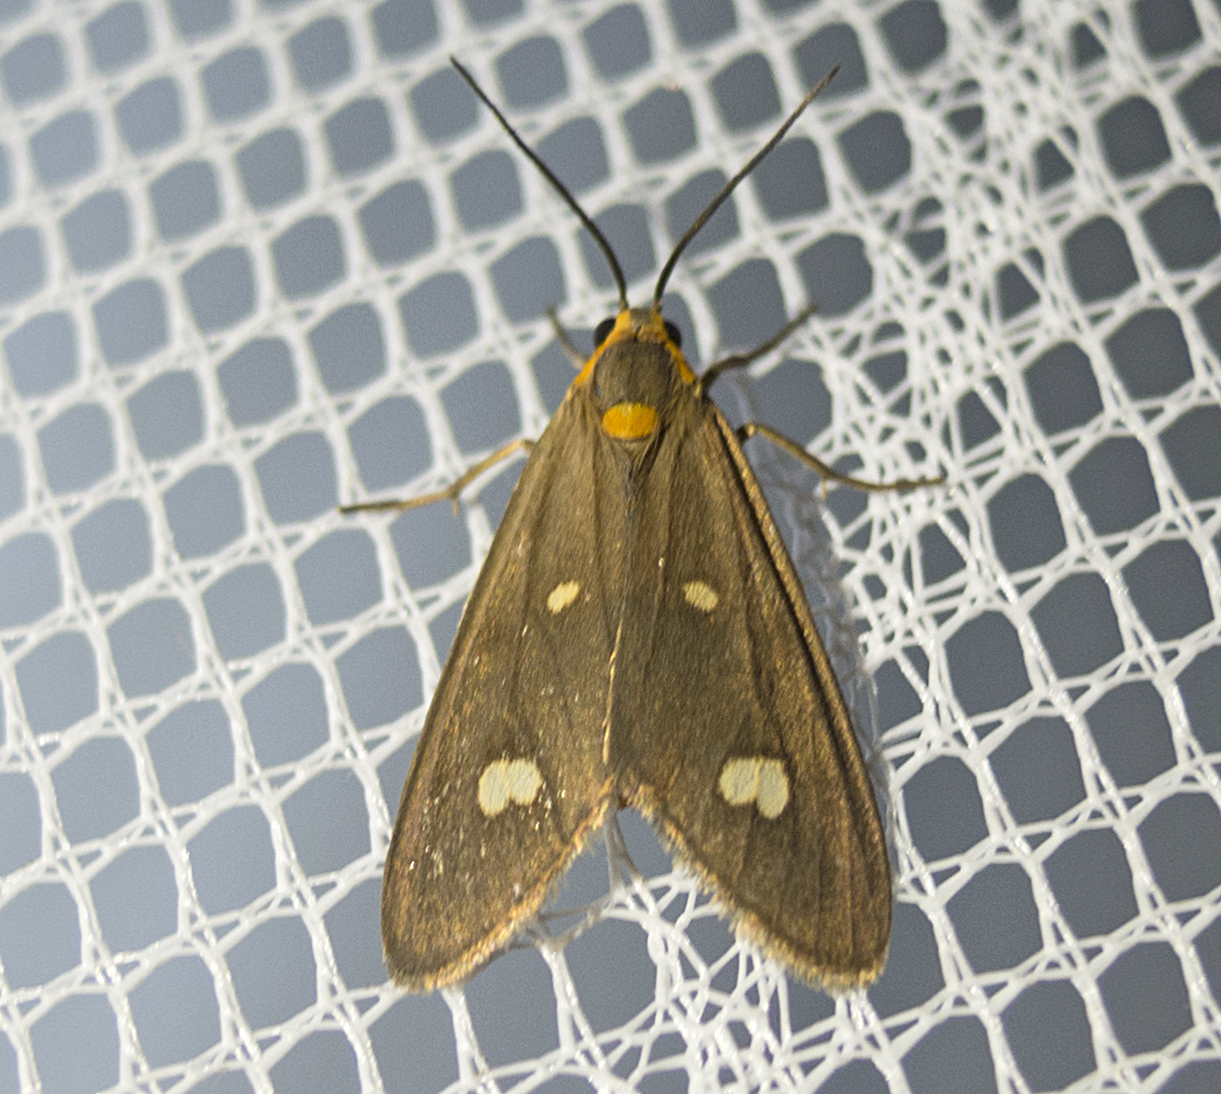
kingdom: Animalia
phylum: Arthropoda
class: Insecta
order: Lepidoptera
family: Erebidae
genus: Dysauxes
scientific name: Dysauxes punctata
